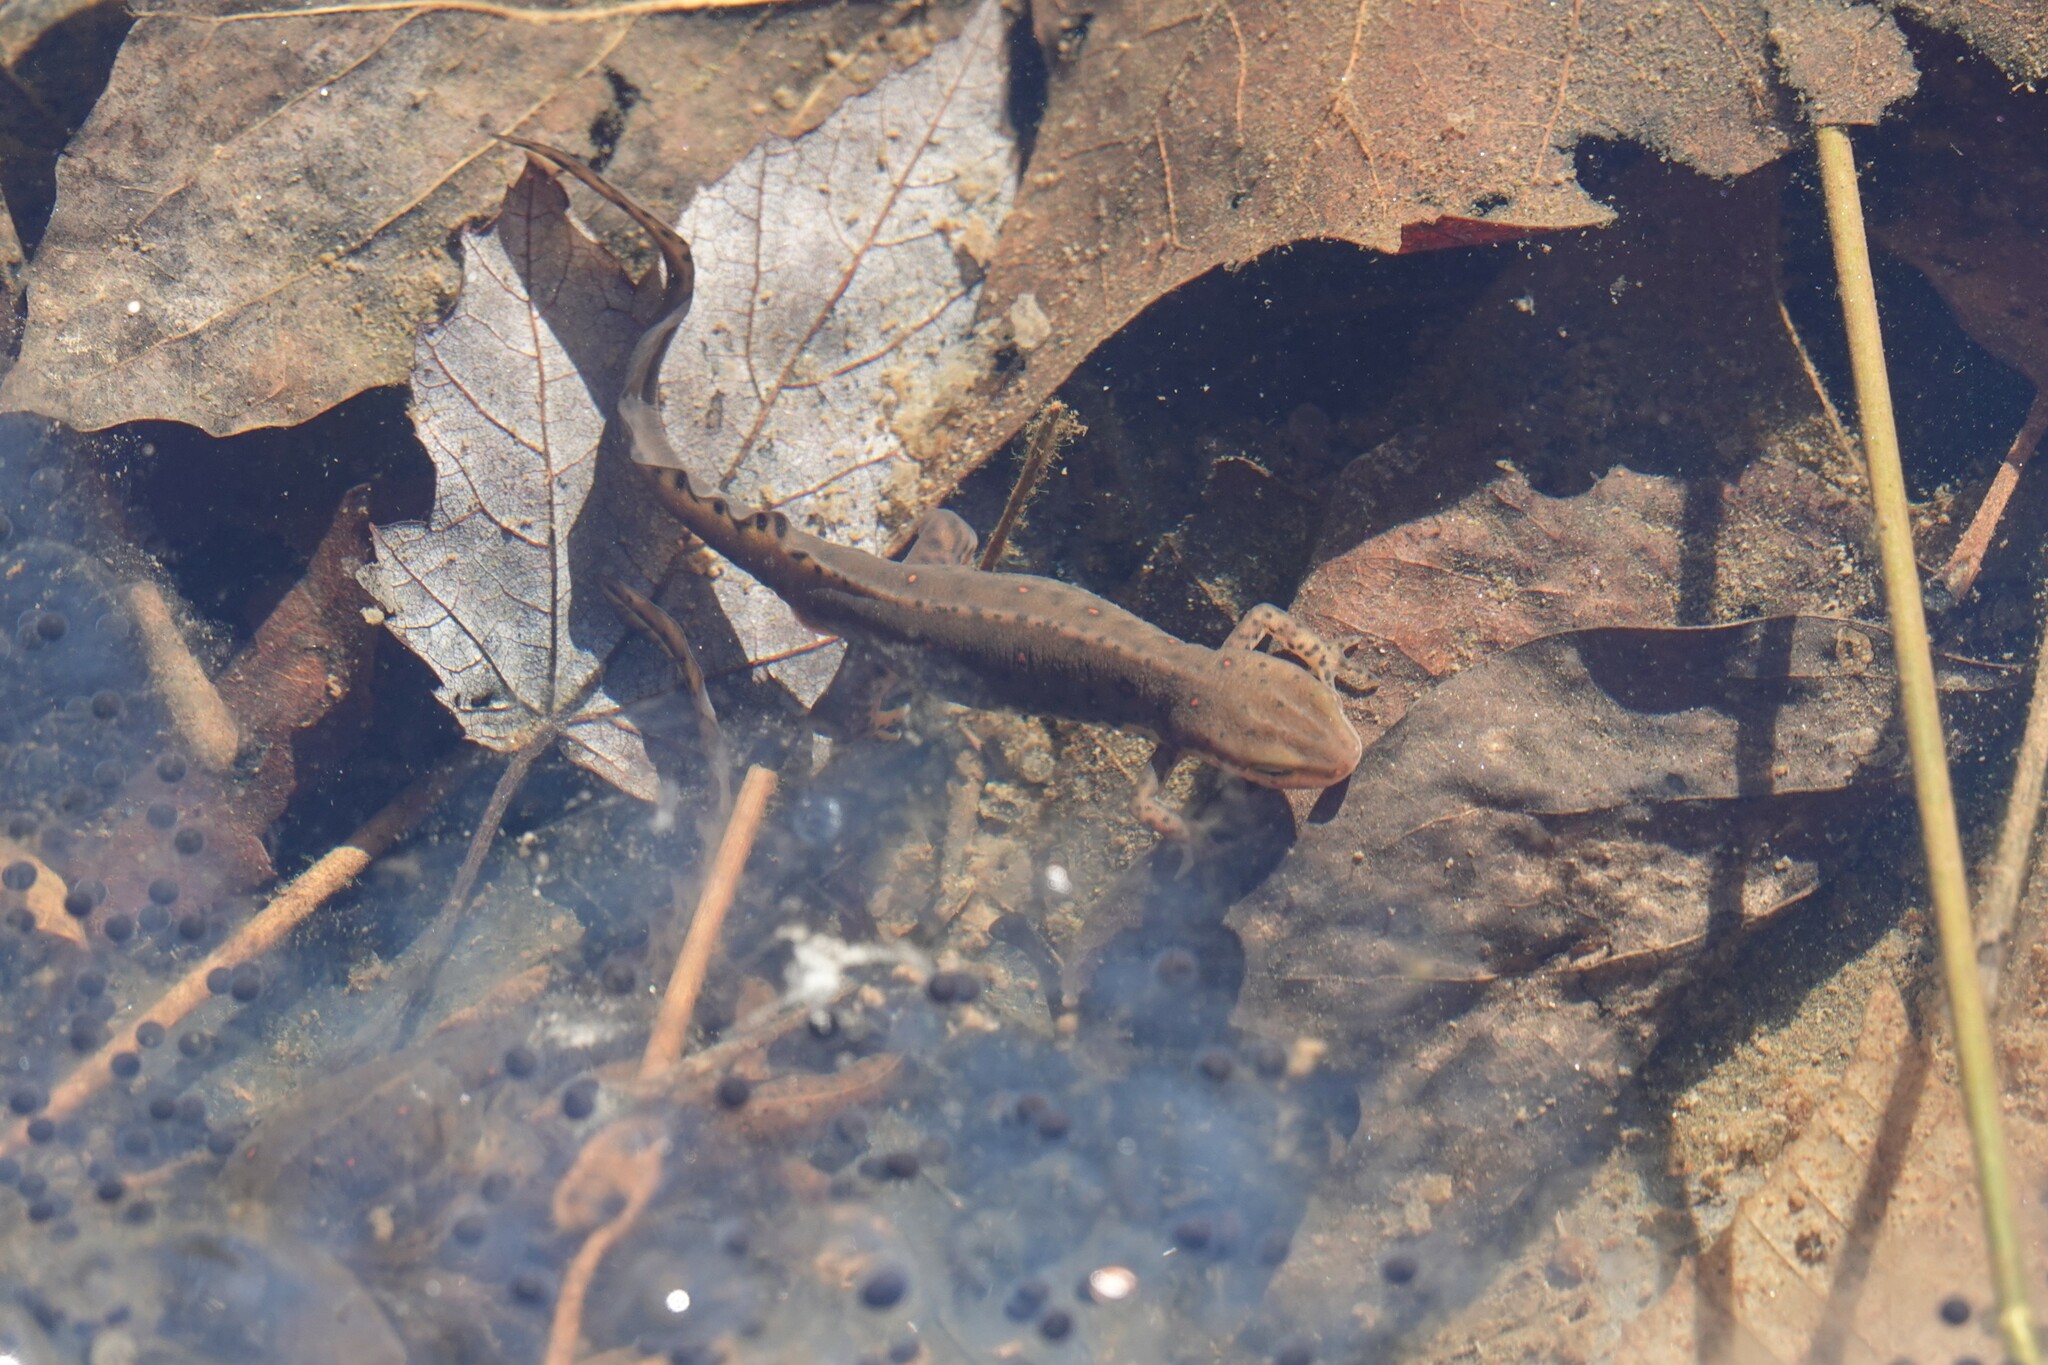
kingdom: Animalia
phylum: Chordata
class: Amphibia
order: Caudata
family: Salamandridae
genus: Notophthalmus
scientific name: Notophthalmus viridescens
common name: Eastern newt
